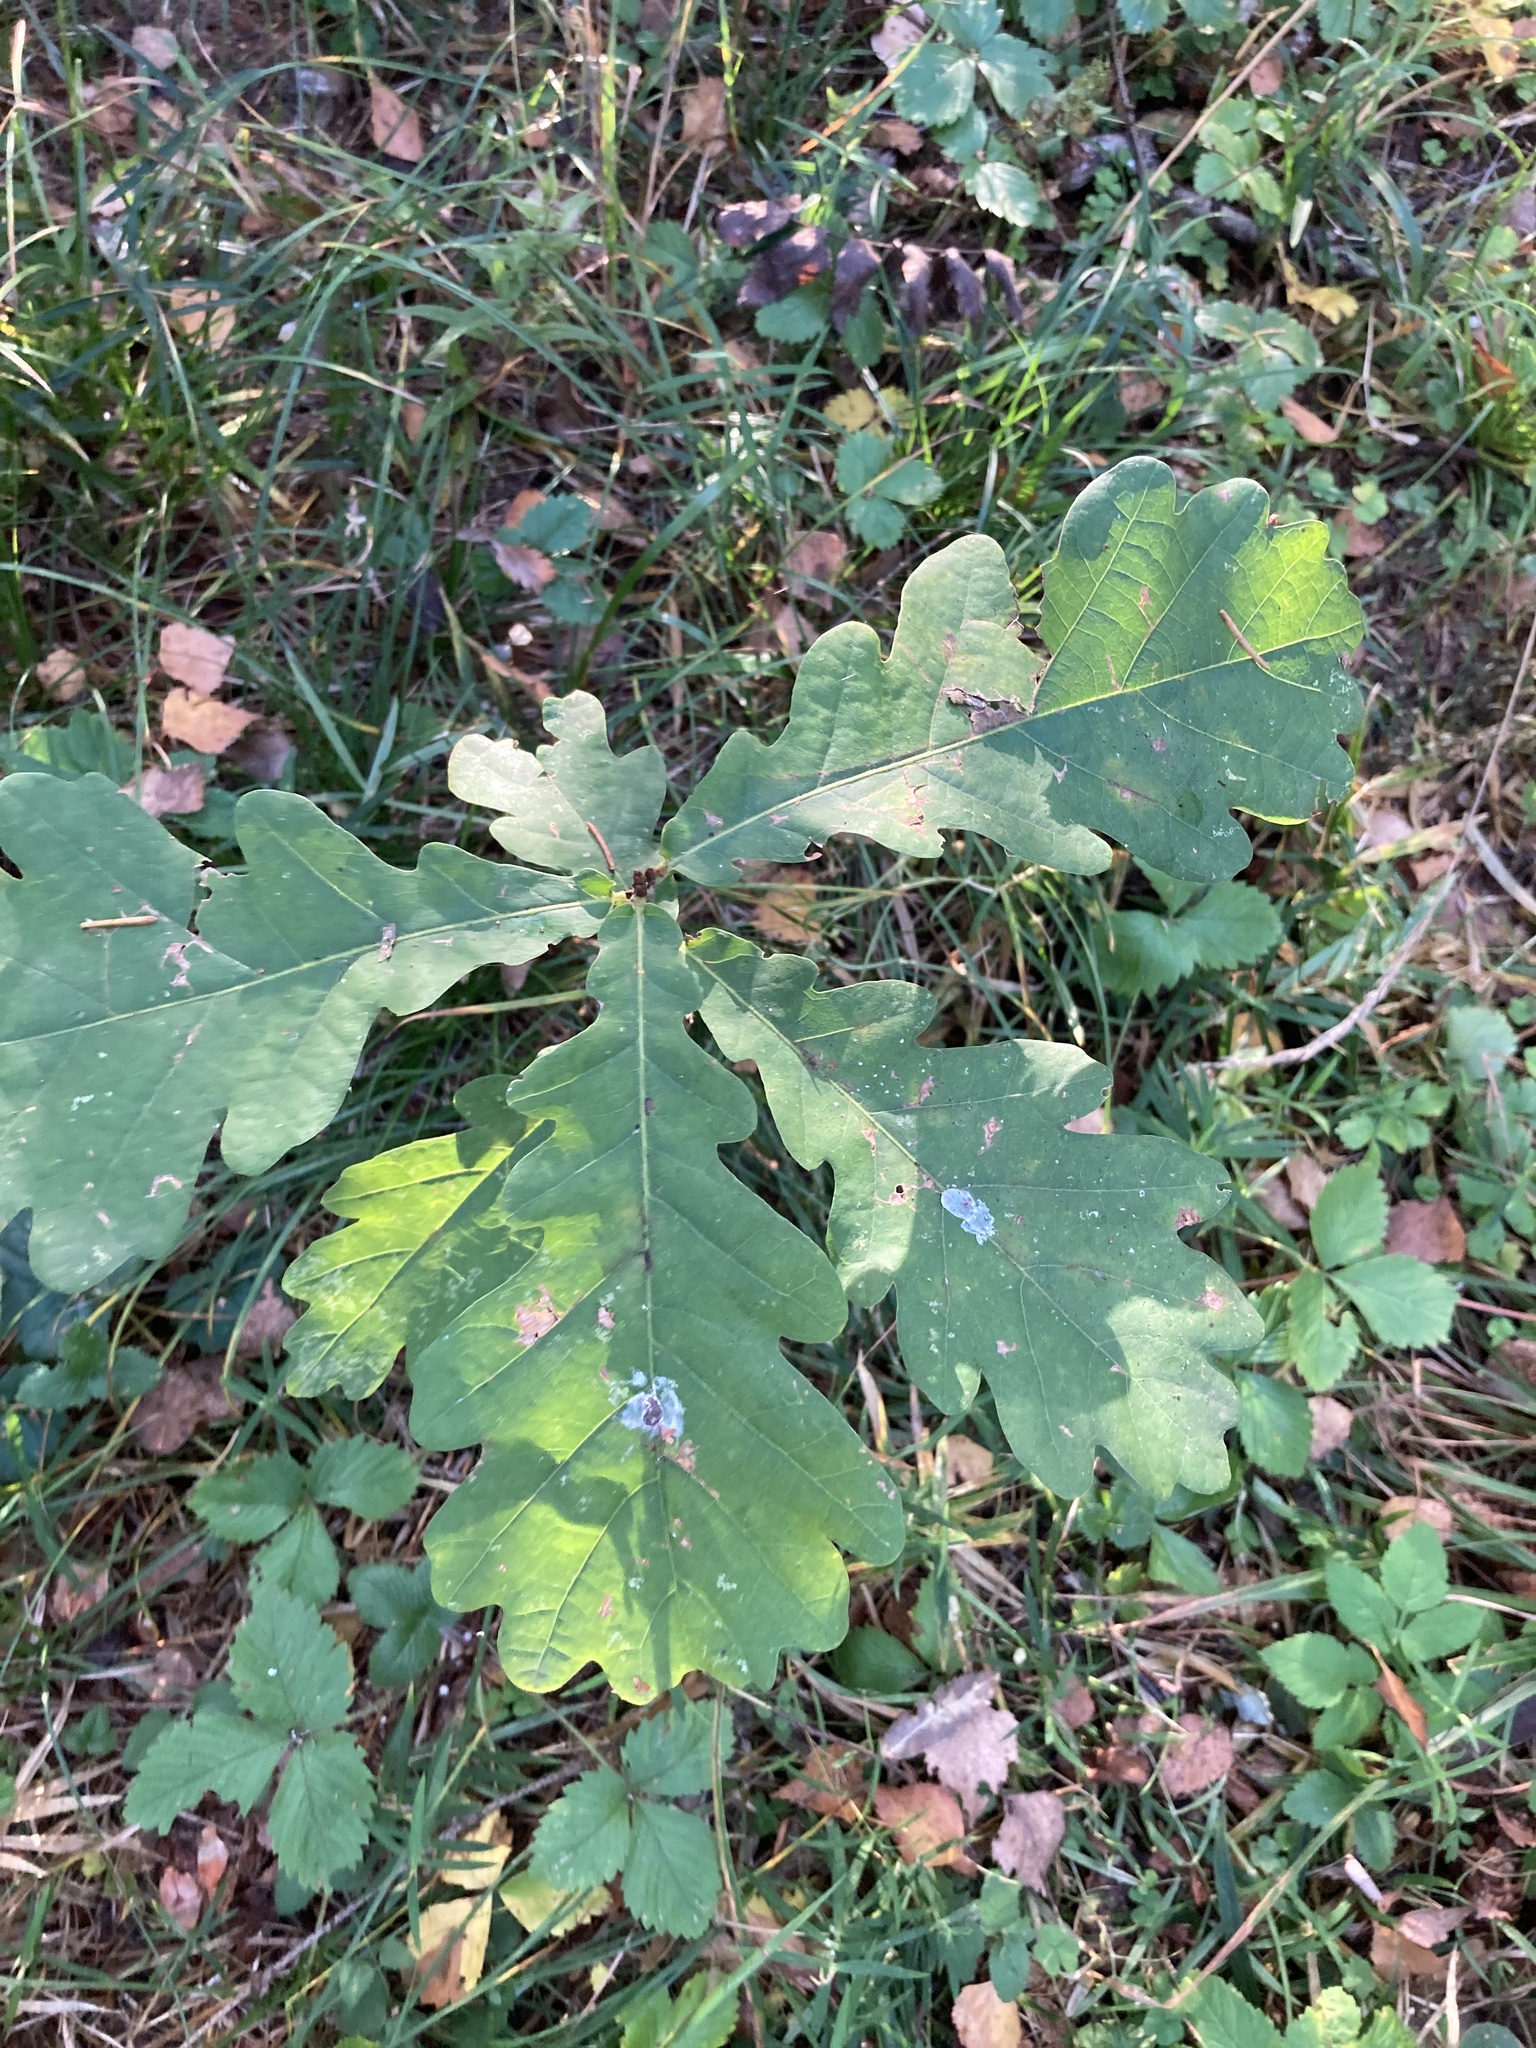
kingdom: Plantae
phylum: Tracheophyta
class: Magnoliopsida
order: Fagales
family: Fagaceae
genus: Quercus
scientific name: Quercus robur
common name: Pedunculate oak
